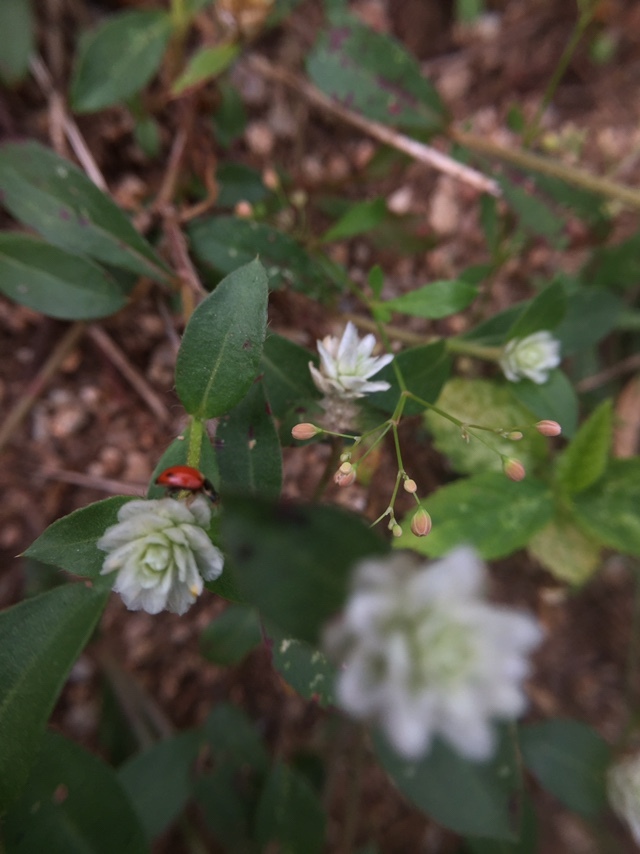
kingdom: Animalia
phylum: Arthropoda
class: Insecta
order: Coleoptera
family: Coccinellidae
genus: Propylea
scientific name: Propylea
